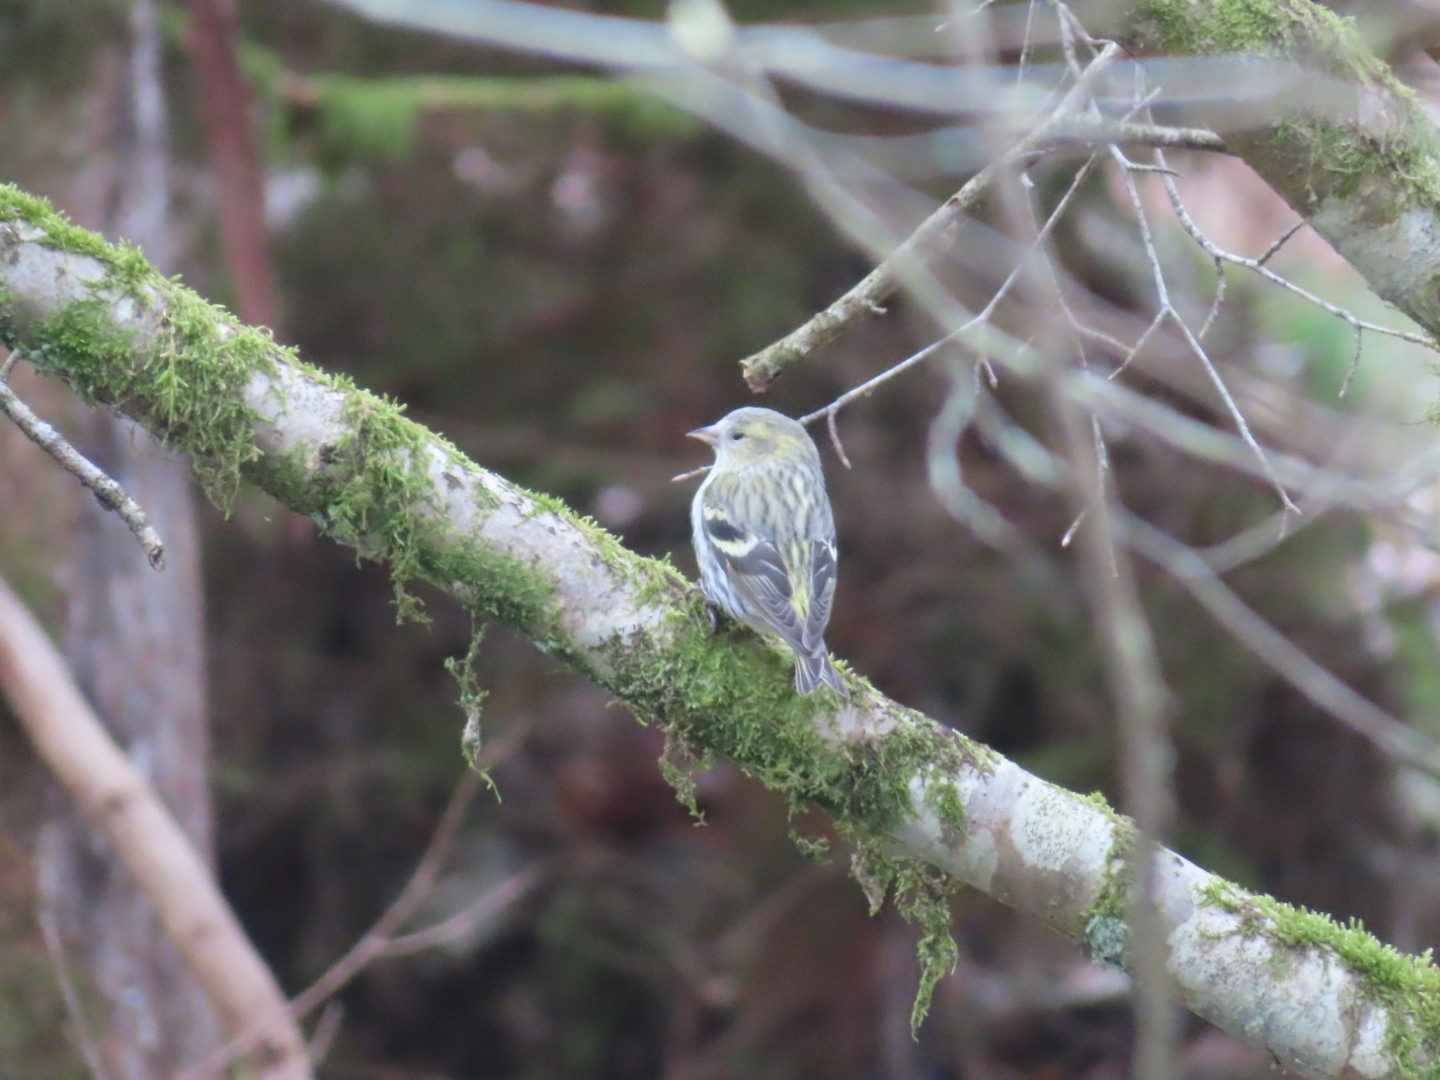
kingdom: Animalia
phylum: Chordata
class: Aves
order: Passeriformes
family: Fringillidae
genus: Spinus
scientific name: Spinus spinus
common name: Eurasian siskin
